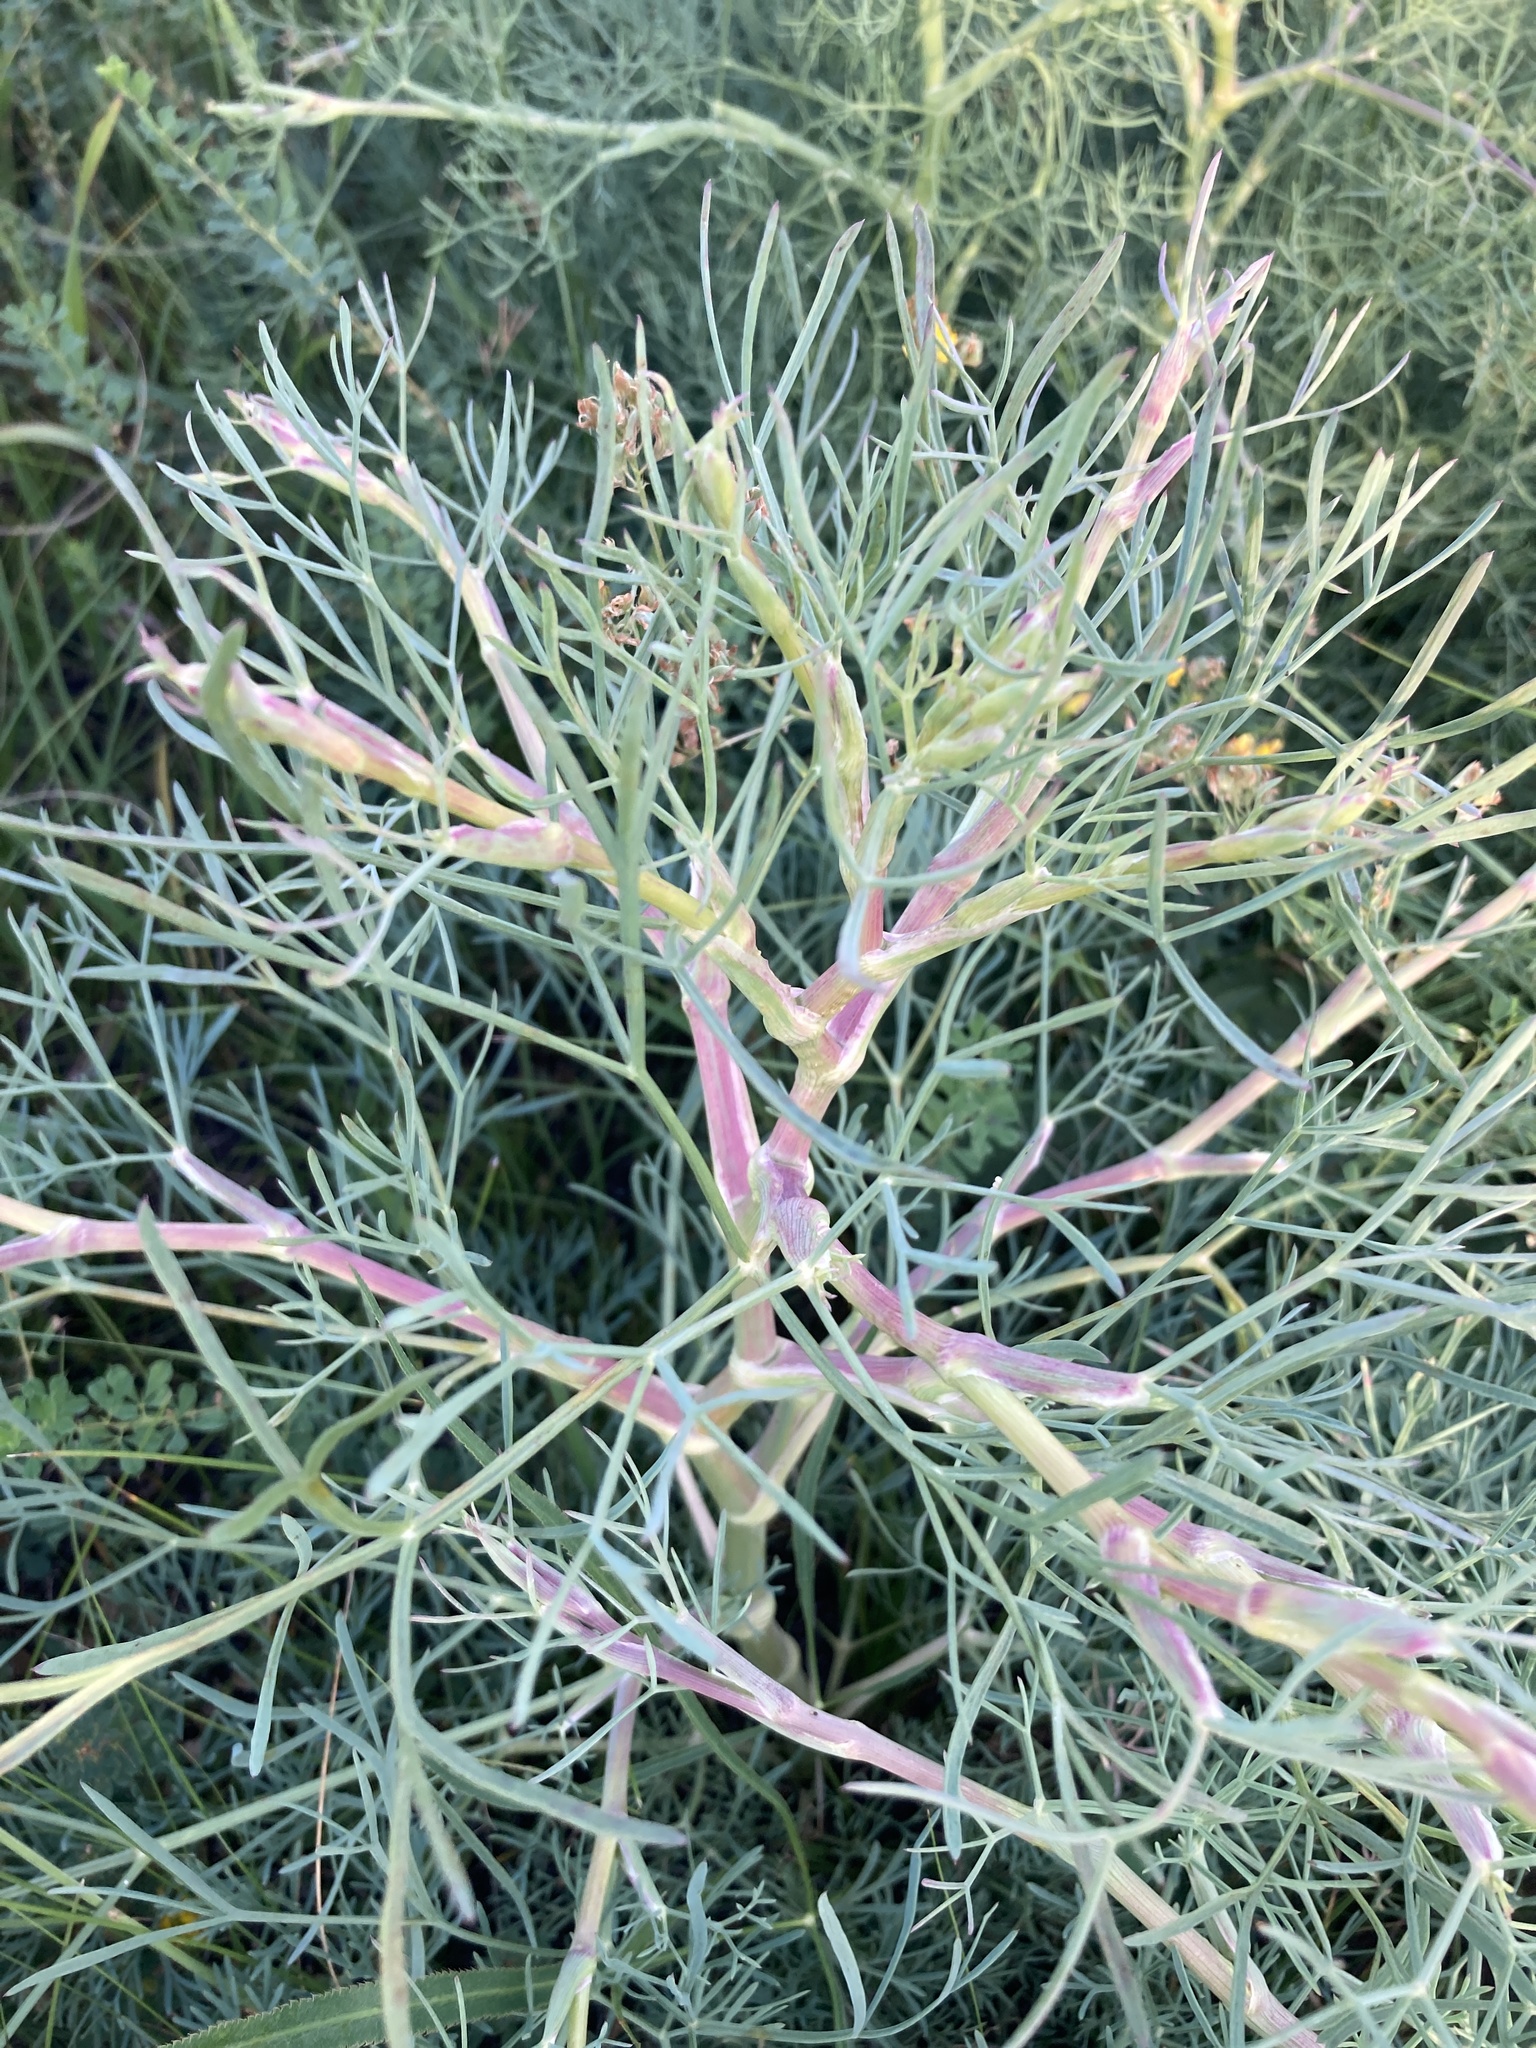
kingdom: Plantae
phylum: Tracheophyta
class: Magnoliopsida
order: Apiales
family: Apiaceae
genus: Seseli
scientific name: Seseli arenarium
